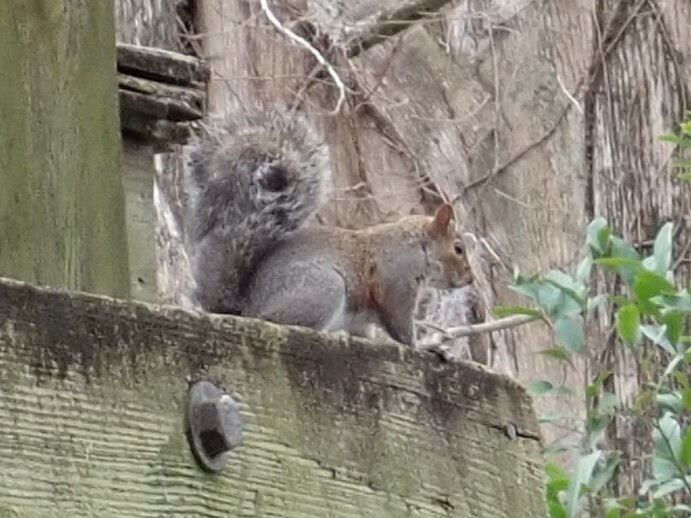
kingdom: Animalia
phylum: Chordata
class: Mammalia
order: Rodentia
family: Sciuridae
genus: Sciurus
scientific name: Sciurus carolinensis
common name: Eastern gray squirrel
